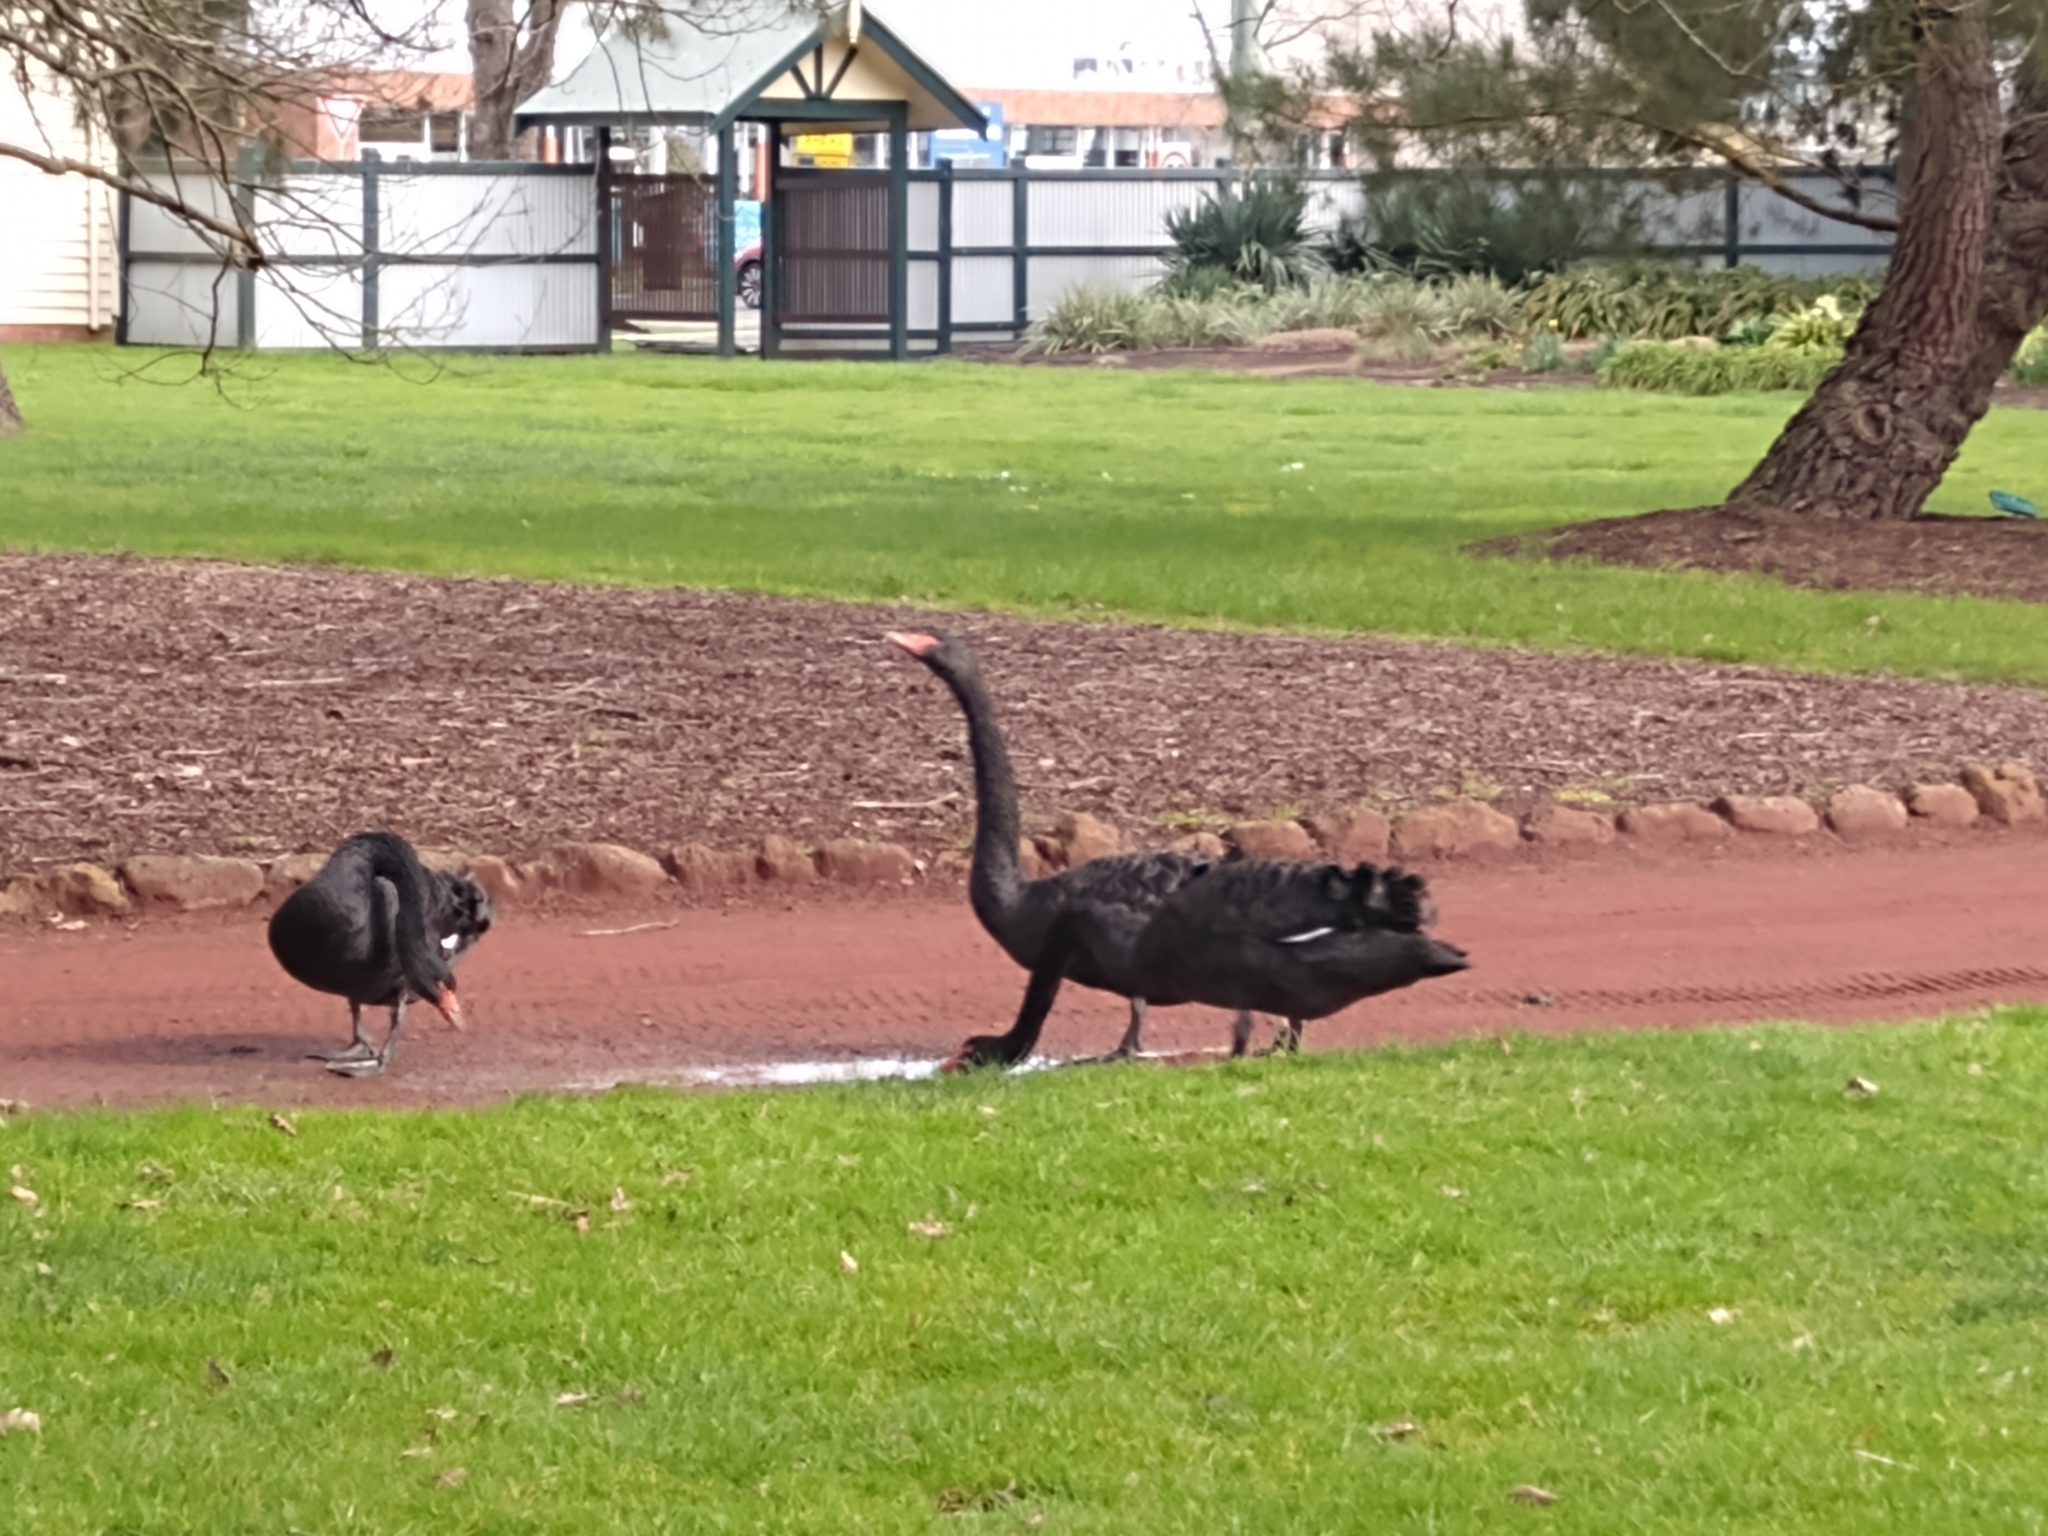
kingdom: Animalia
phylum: Chordata
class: Aves
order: Anseriformes
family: Anatidae
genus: Cygnus
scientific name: Cygnus atratus
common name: Black swan
